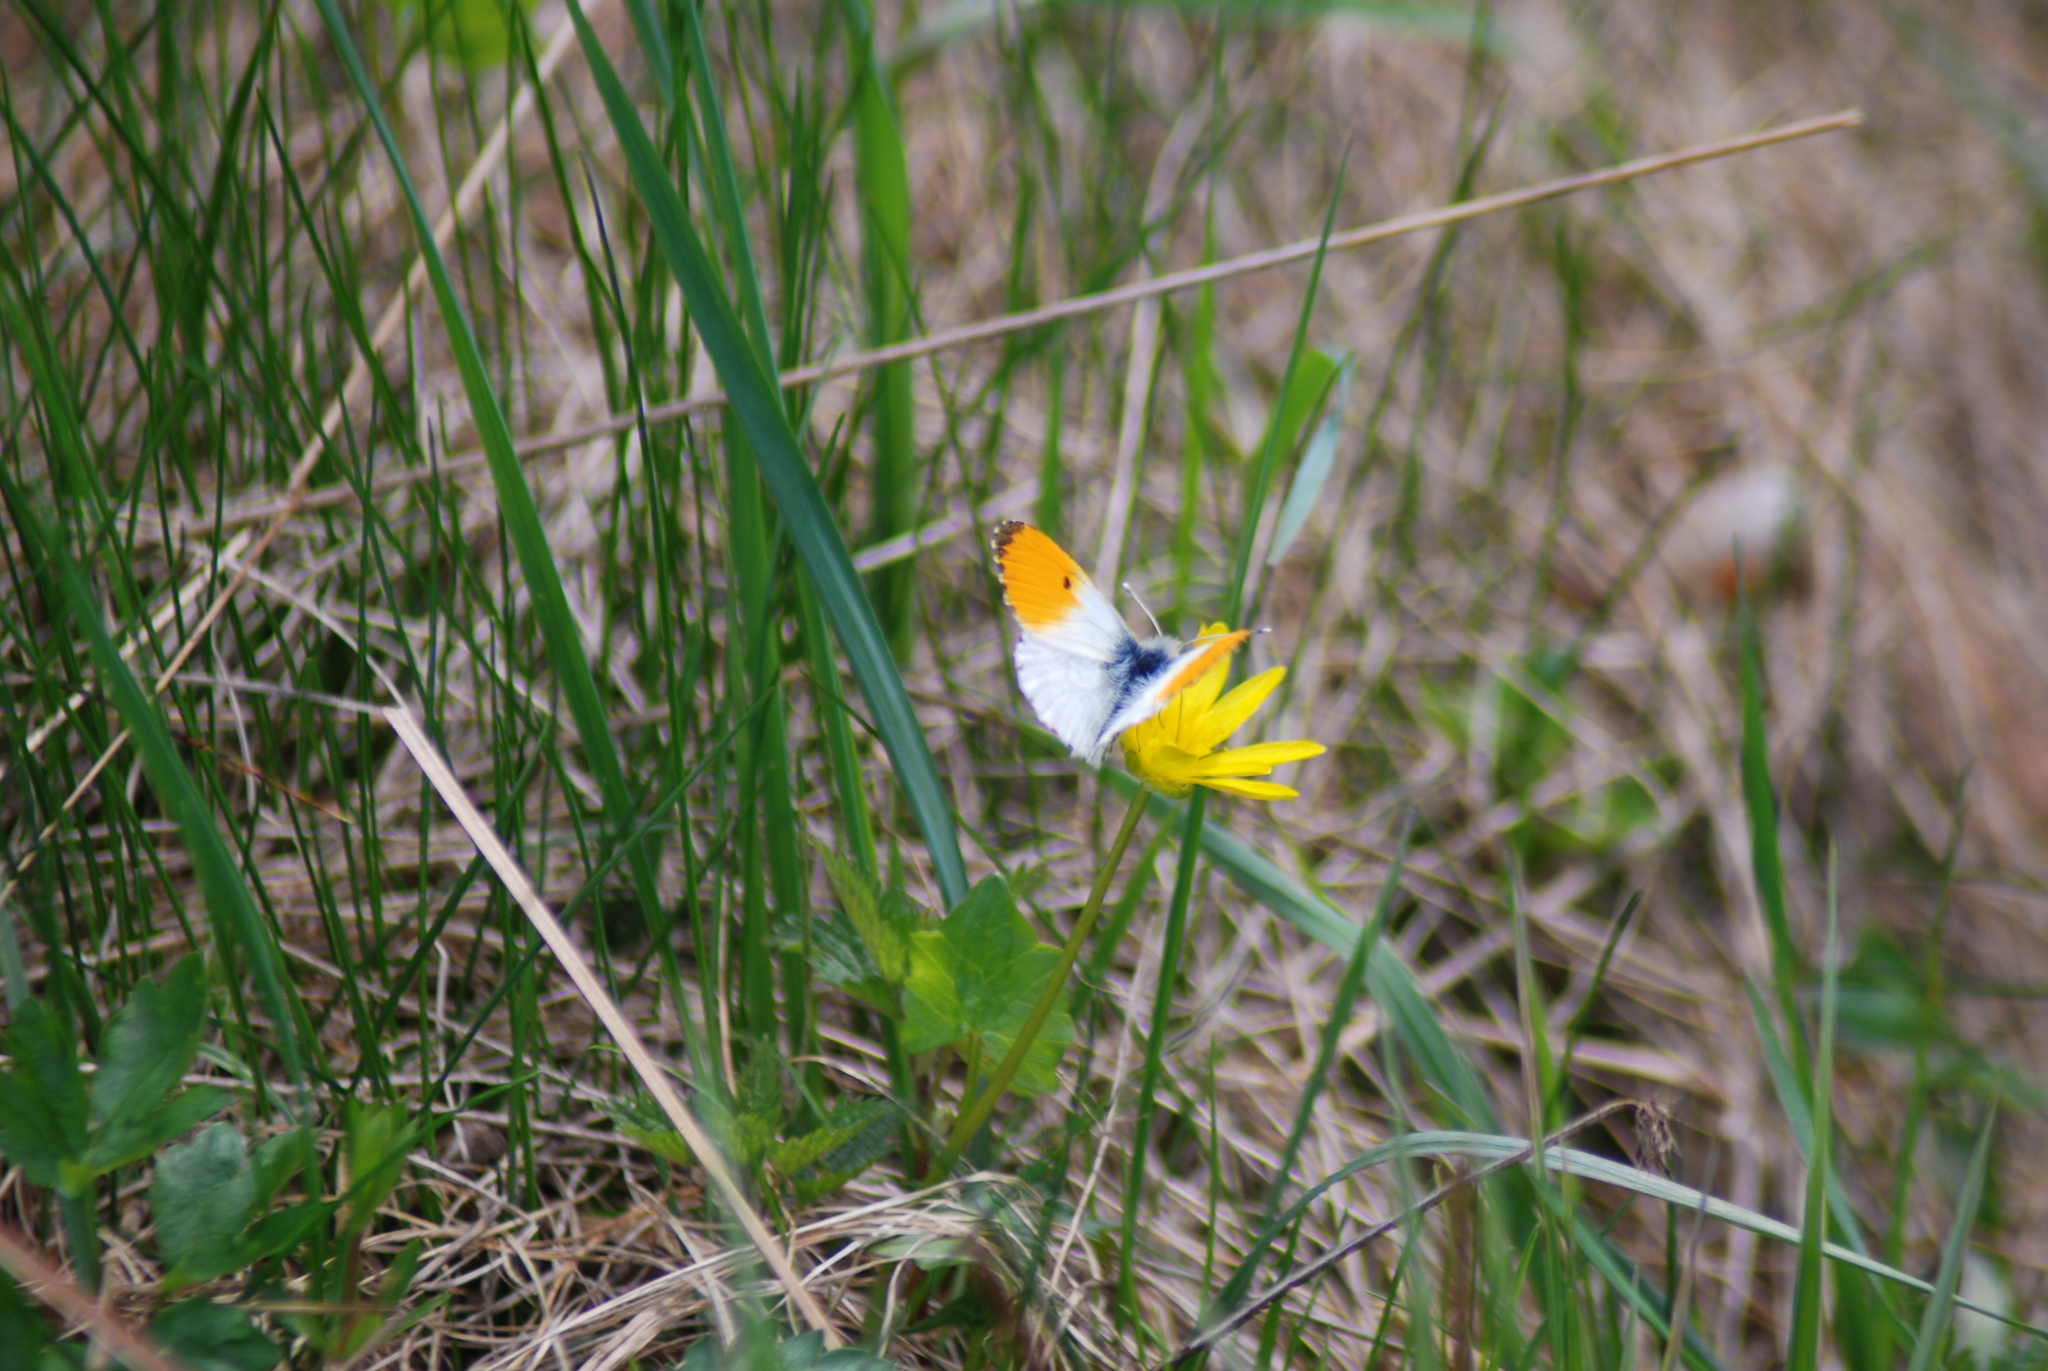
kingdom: Animalia
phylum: Arthropoda
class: Insecta
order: Lepidoptera
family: Pieridae
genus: Anthocharis
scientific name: Anthocharis cardamines
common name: Orange-tip
